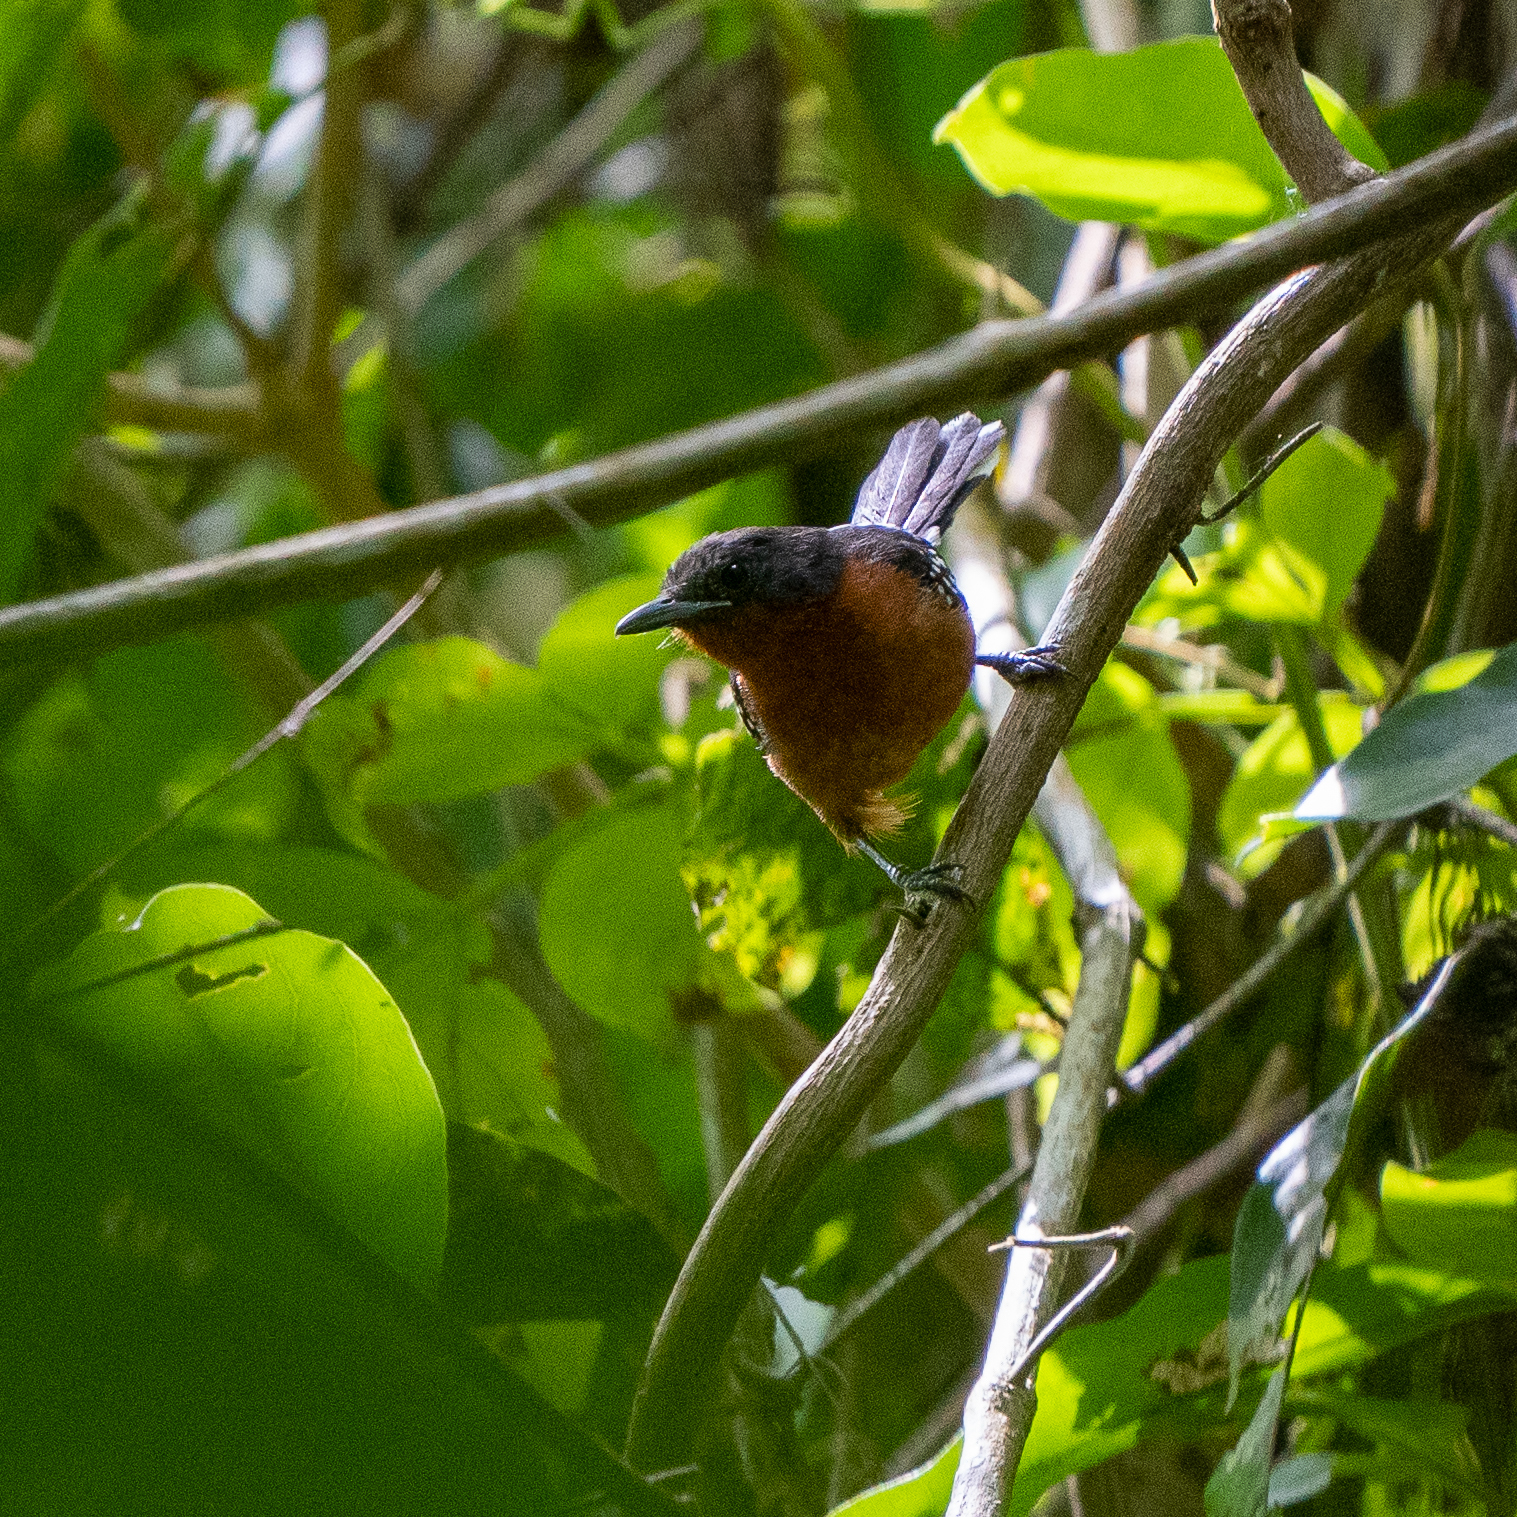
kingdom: Animalia
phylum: Chordata
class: Aves
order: Passeriformes
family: Thamnophilidae
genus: Microrhopias
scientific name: Microrhopias quixensis
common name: Dot-winged antwren
